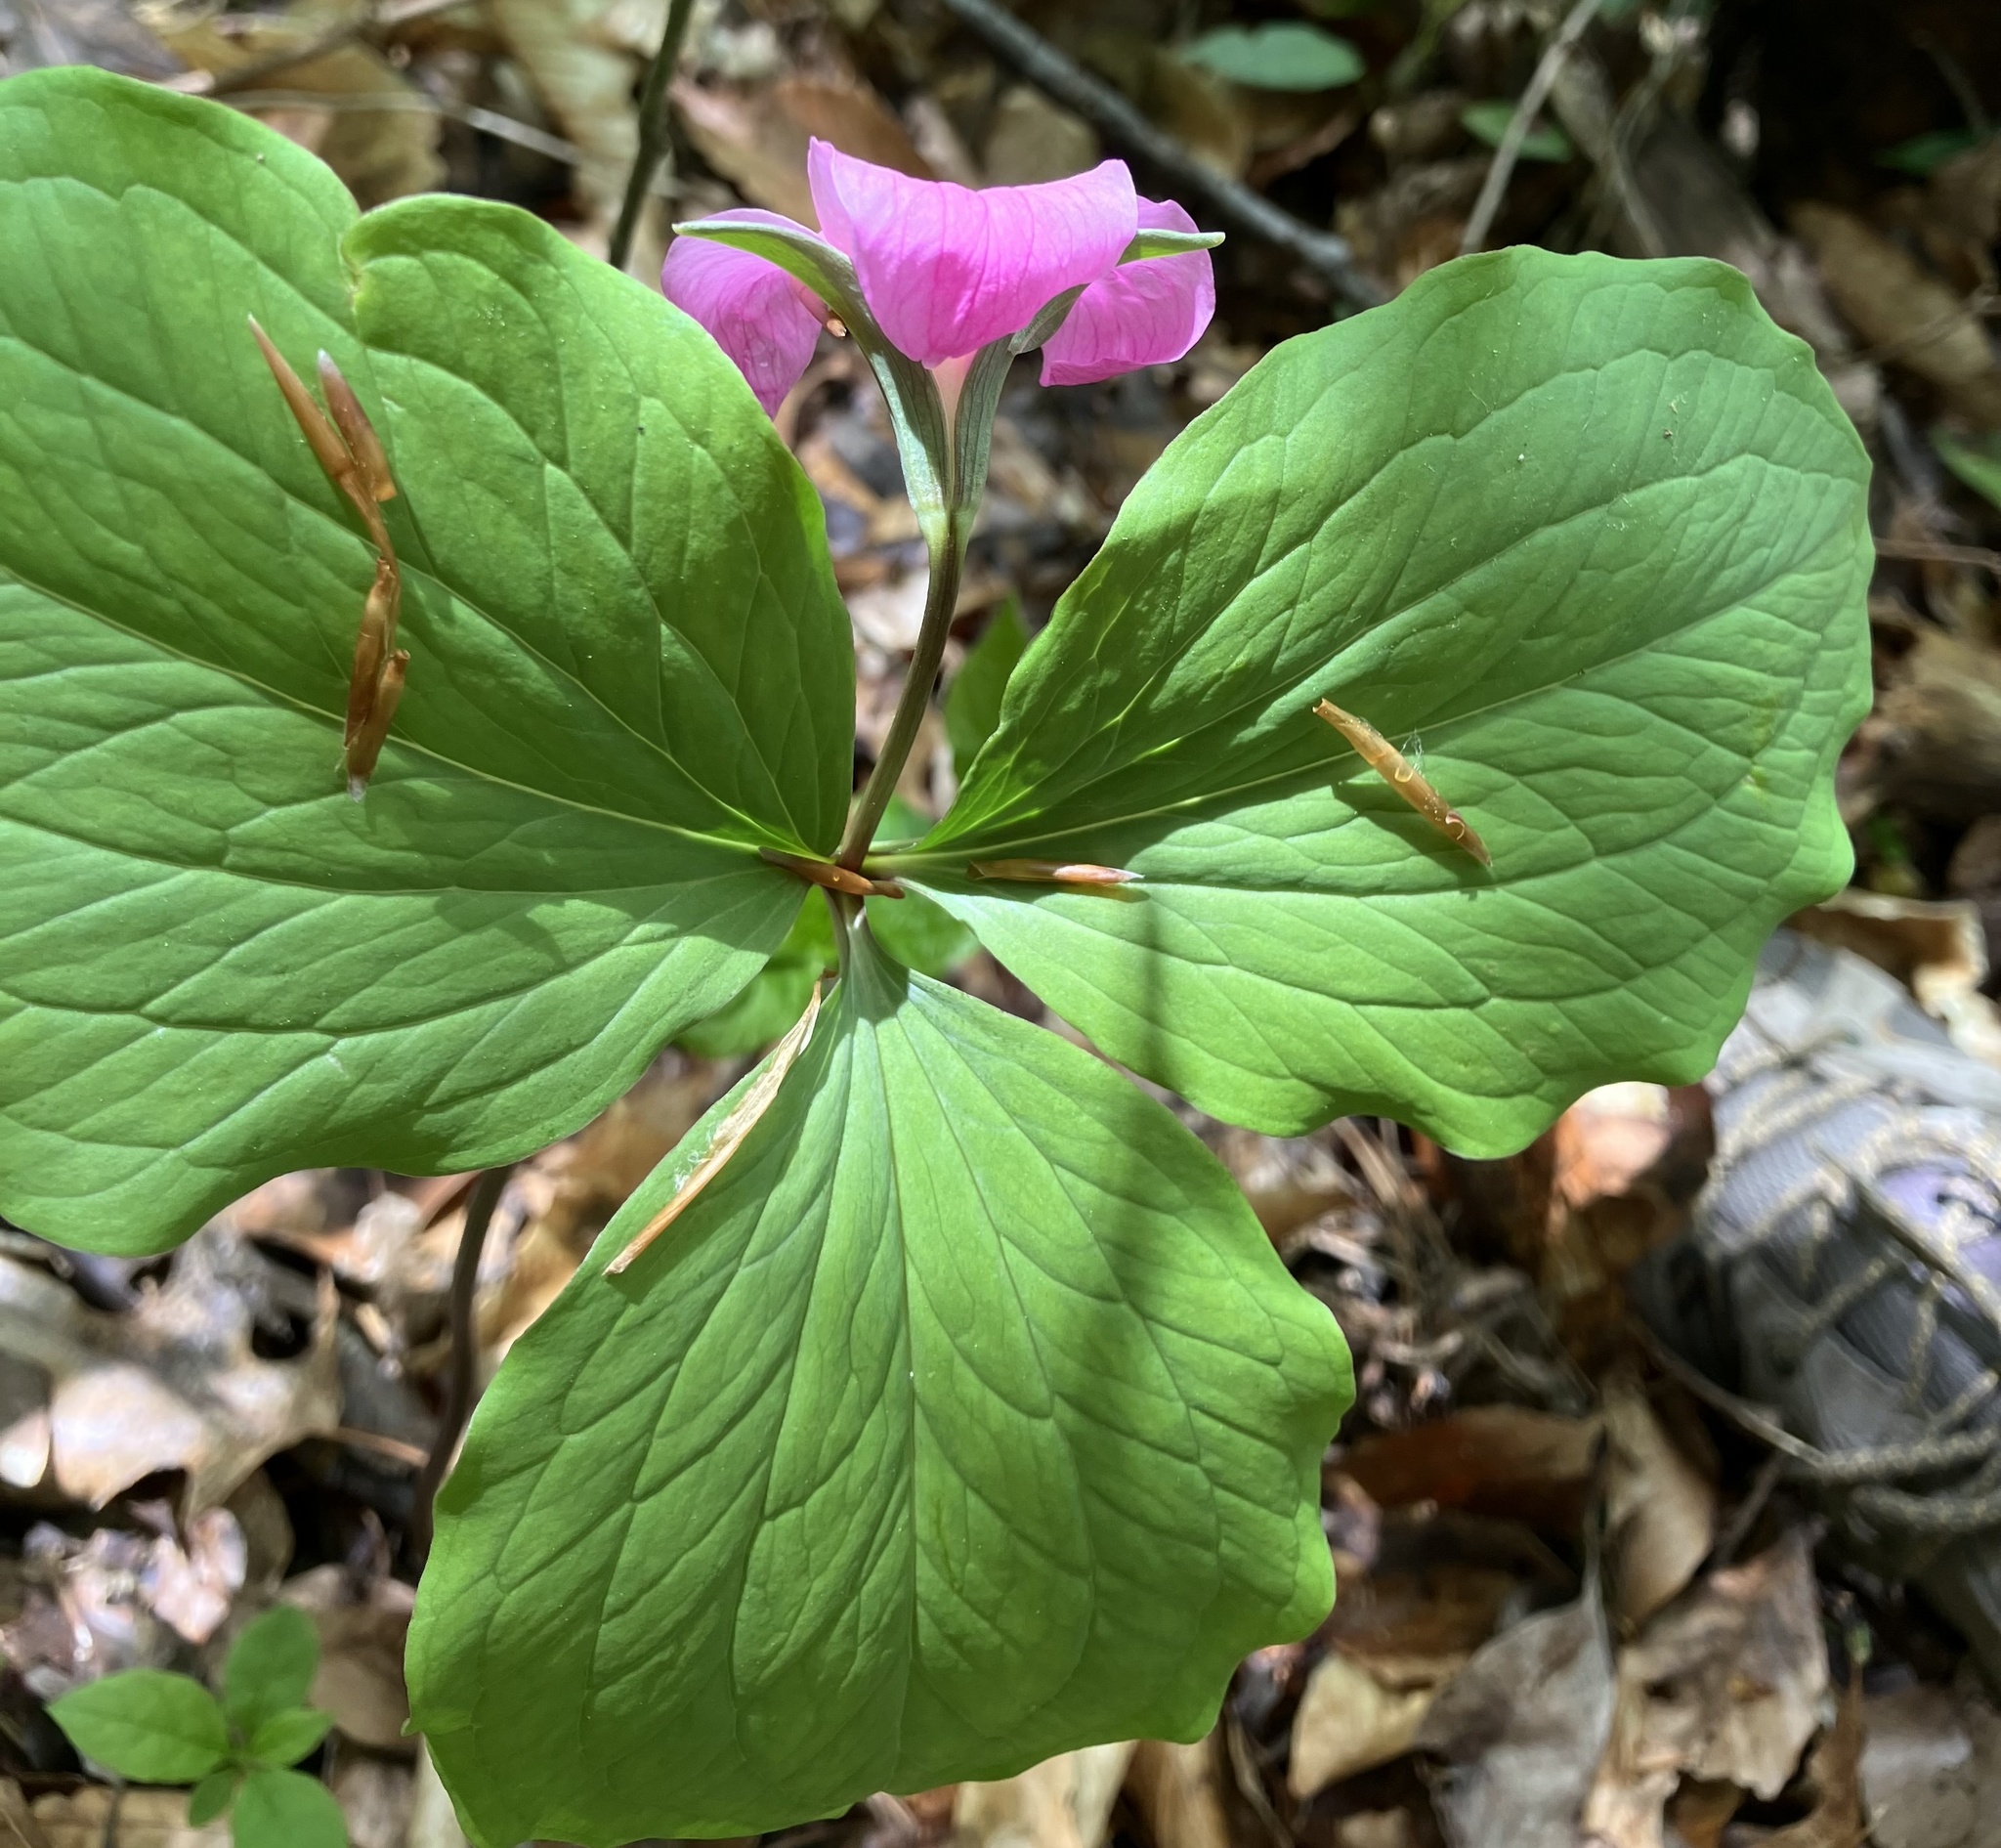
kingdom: Plantae
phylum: Tracheophyta
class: Liliopsida
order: Liliales
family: Melanthiaceae
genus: Trillium
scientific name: Trillium catesbaei
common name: Bashful trillium
